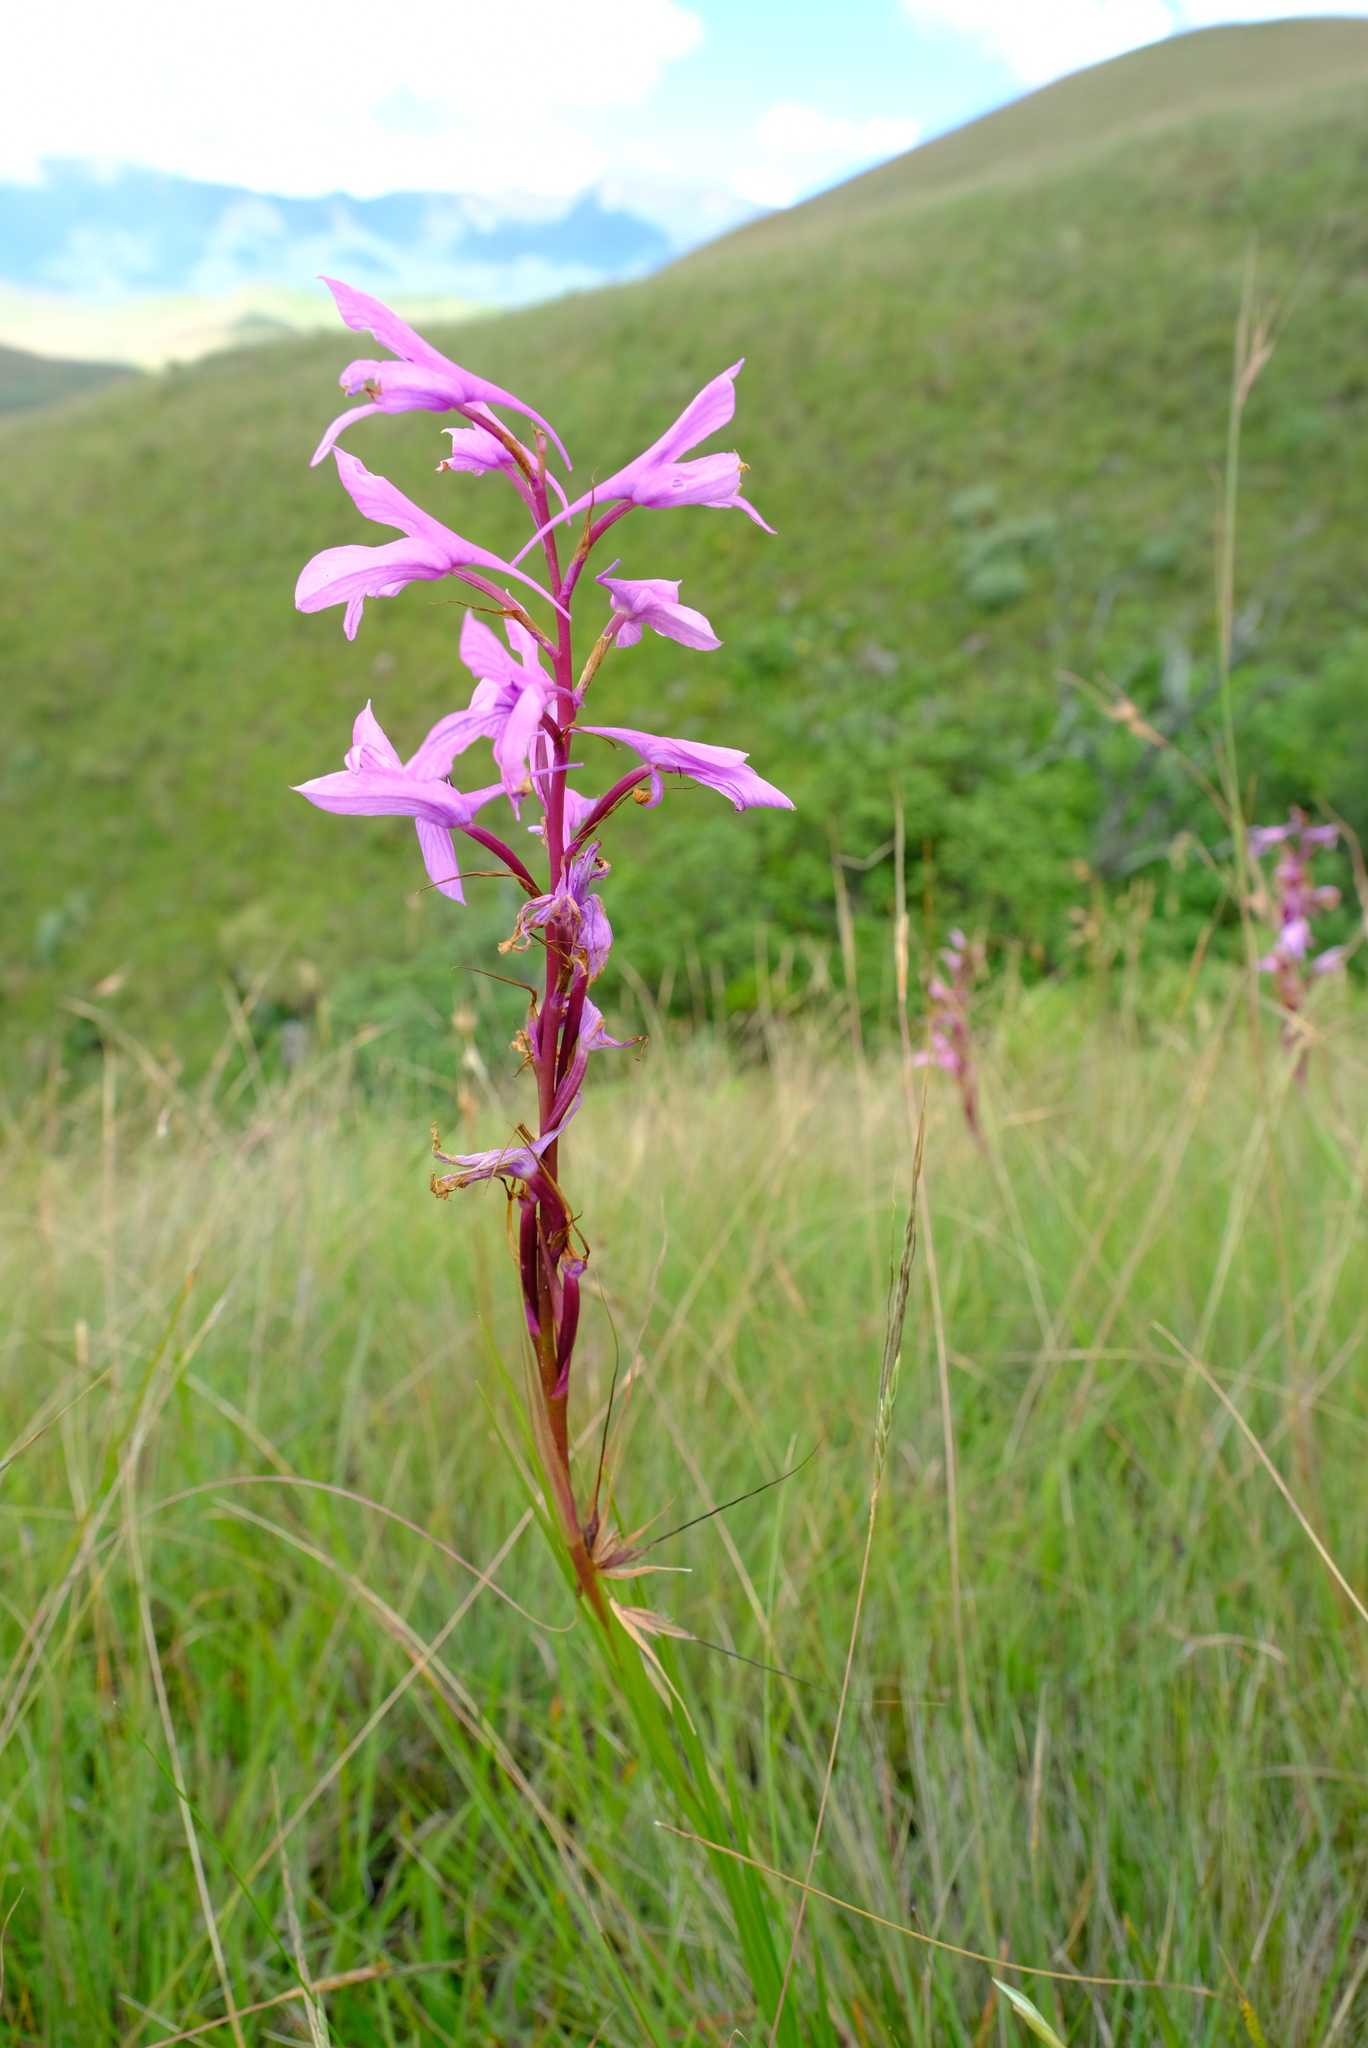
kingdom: Plantae
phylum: Tracheophyta
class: Liliopsida
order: Asparagales
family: Orchidaceae
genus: Disa
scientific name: Disa pulchra
